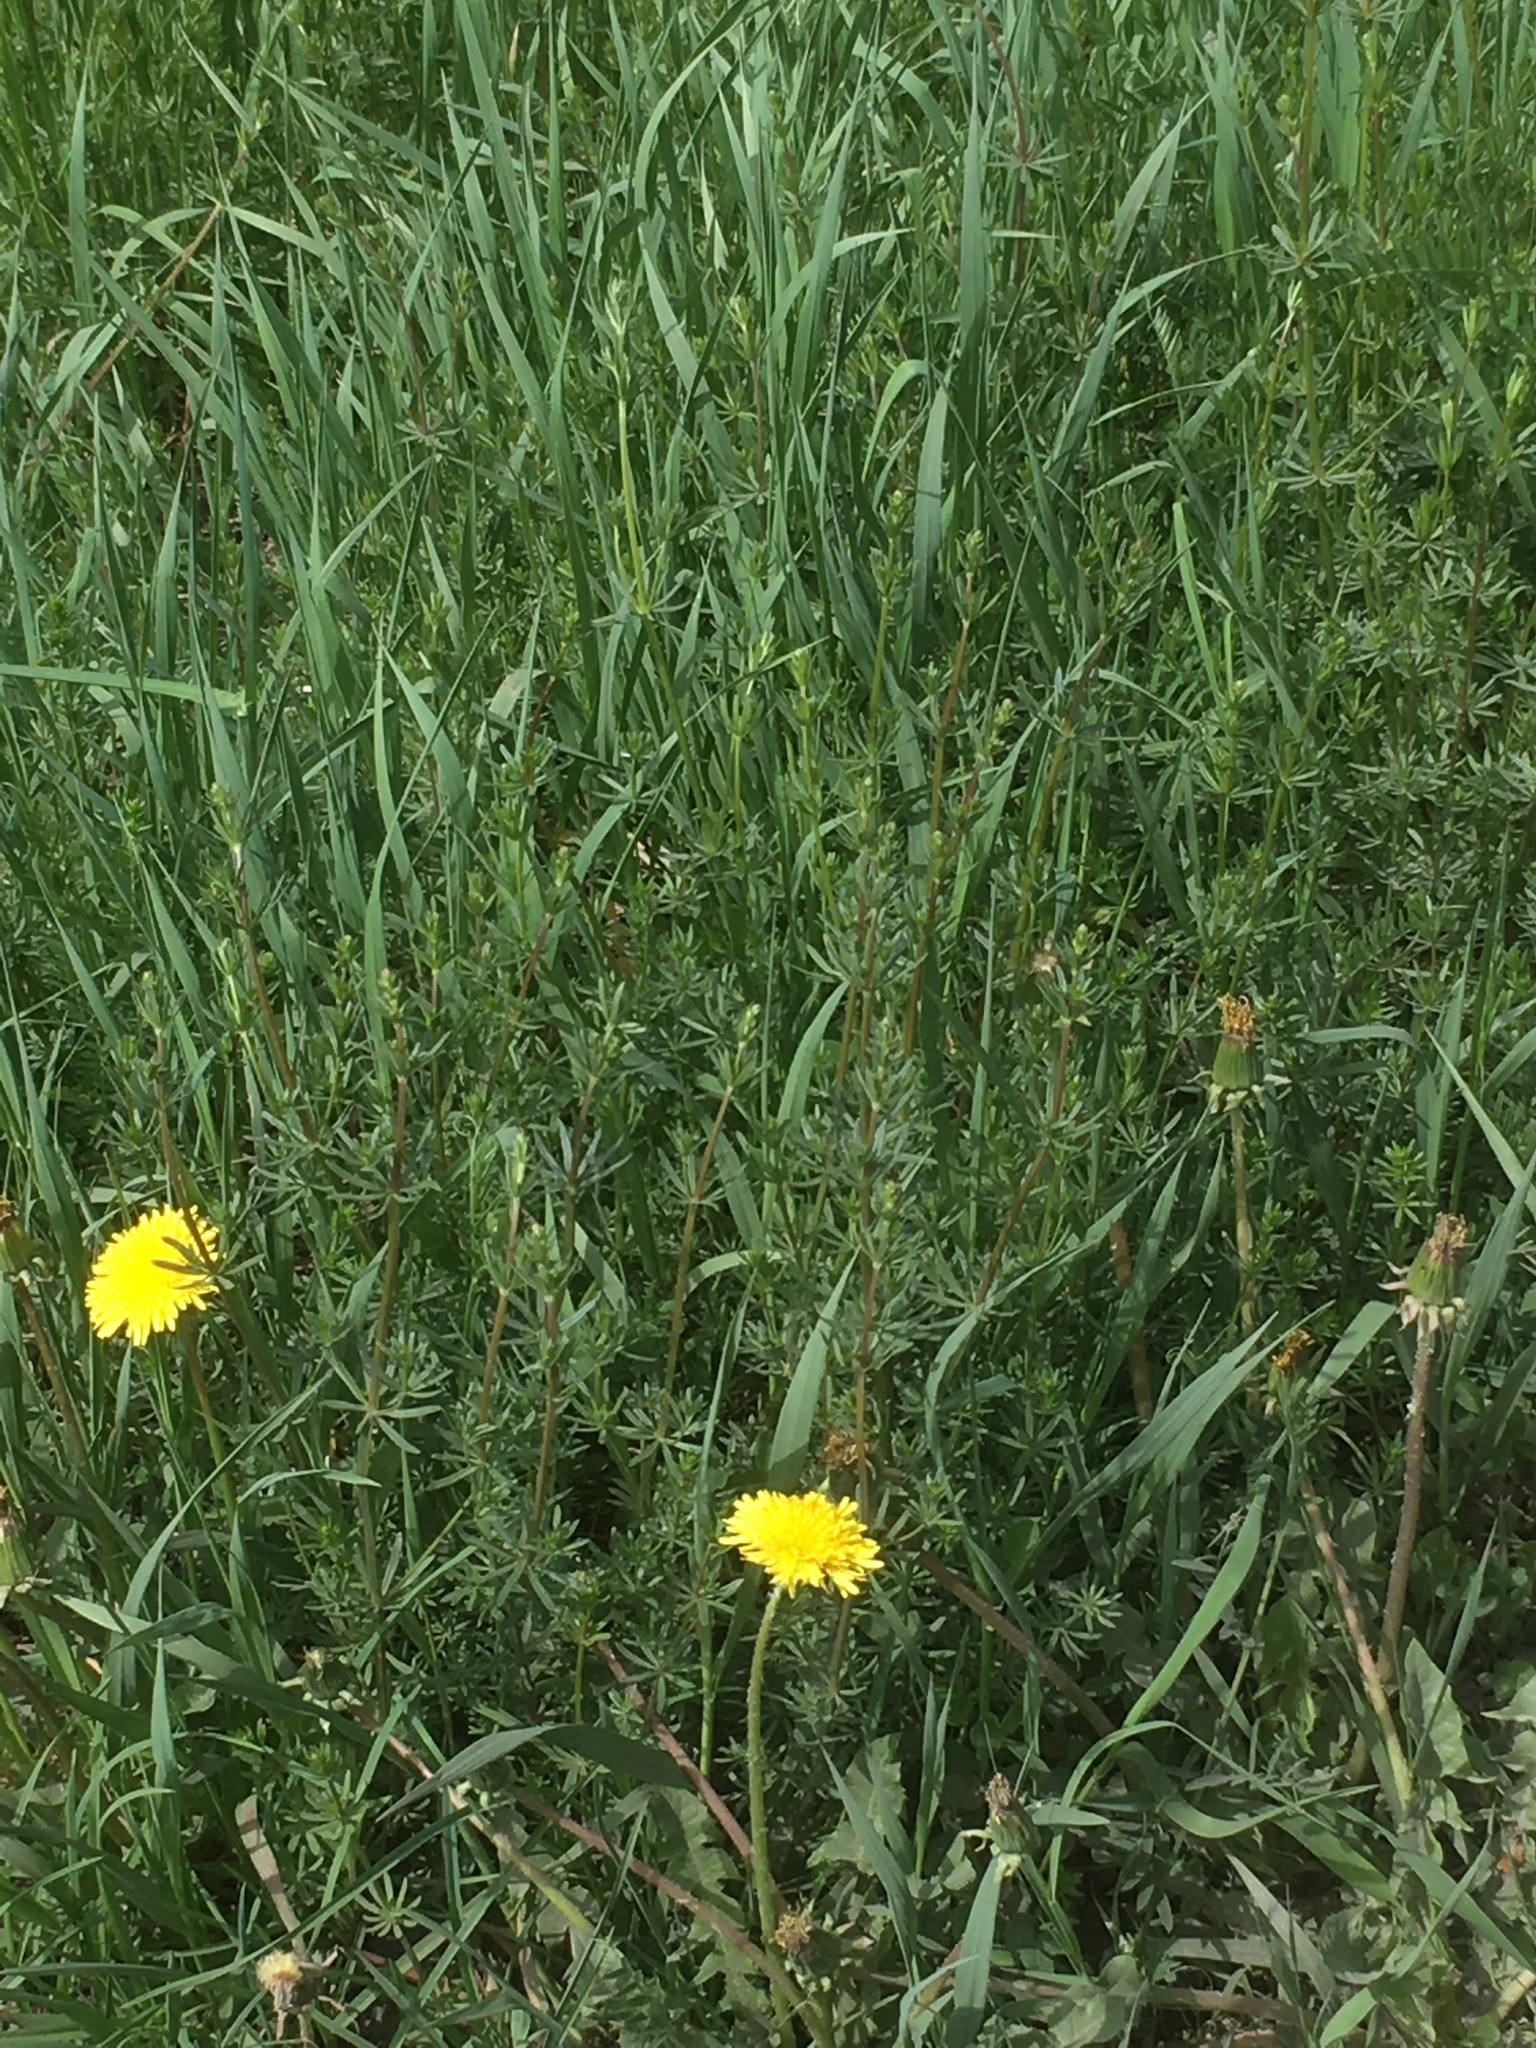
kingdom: Plantae
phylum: Tracheophyta
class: Magnoliopsida
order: Gentianales
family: Rubiaceae
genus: Galium
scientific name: Galium mollugo
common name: Hedge bedstraw
